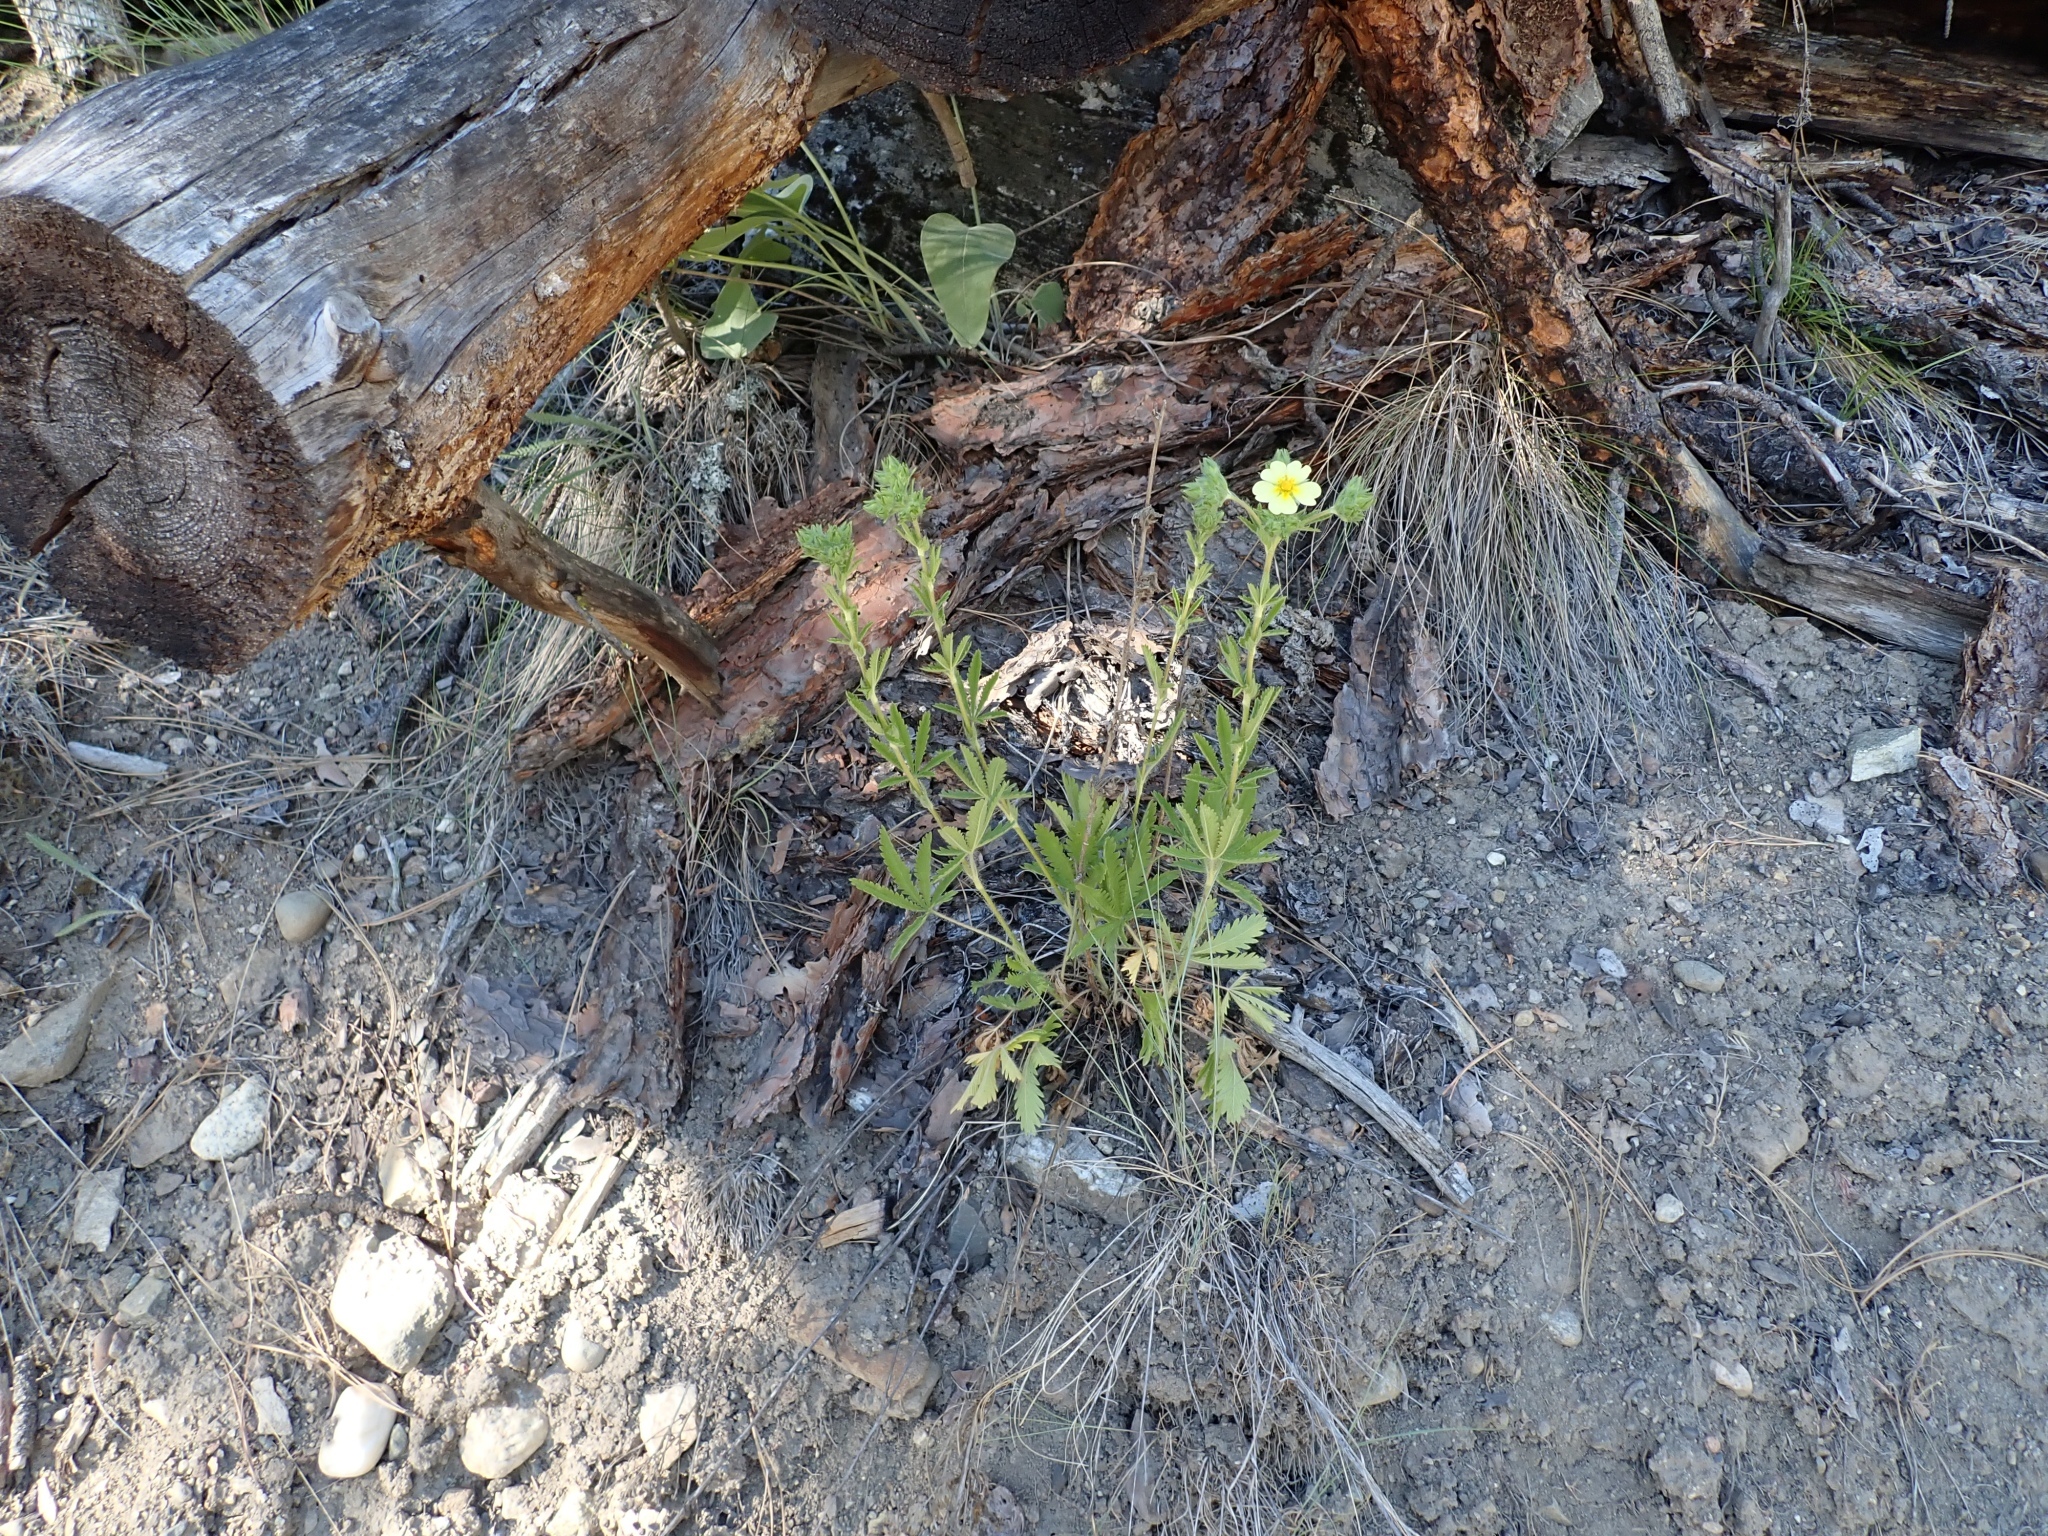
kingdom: Plantae
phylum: Tracheophyta
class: Magnoliopsida
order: Rosales
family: Rosaceae
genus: Potentilla
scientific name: Potentilla recta
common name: Sulphur cinquefoil
